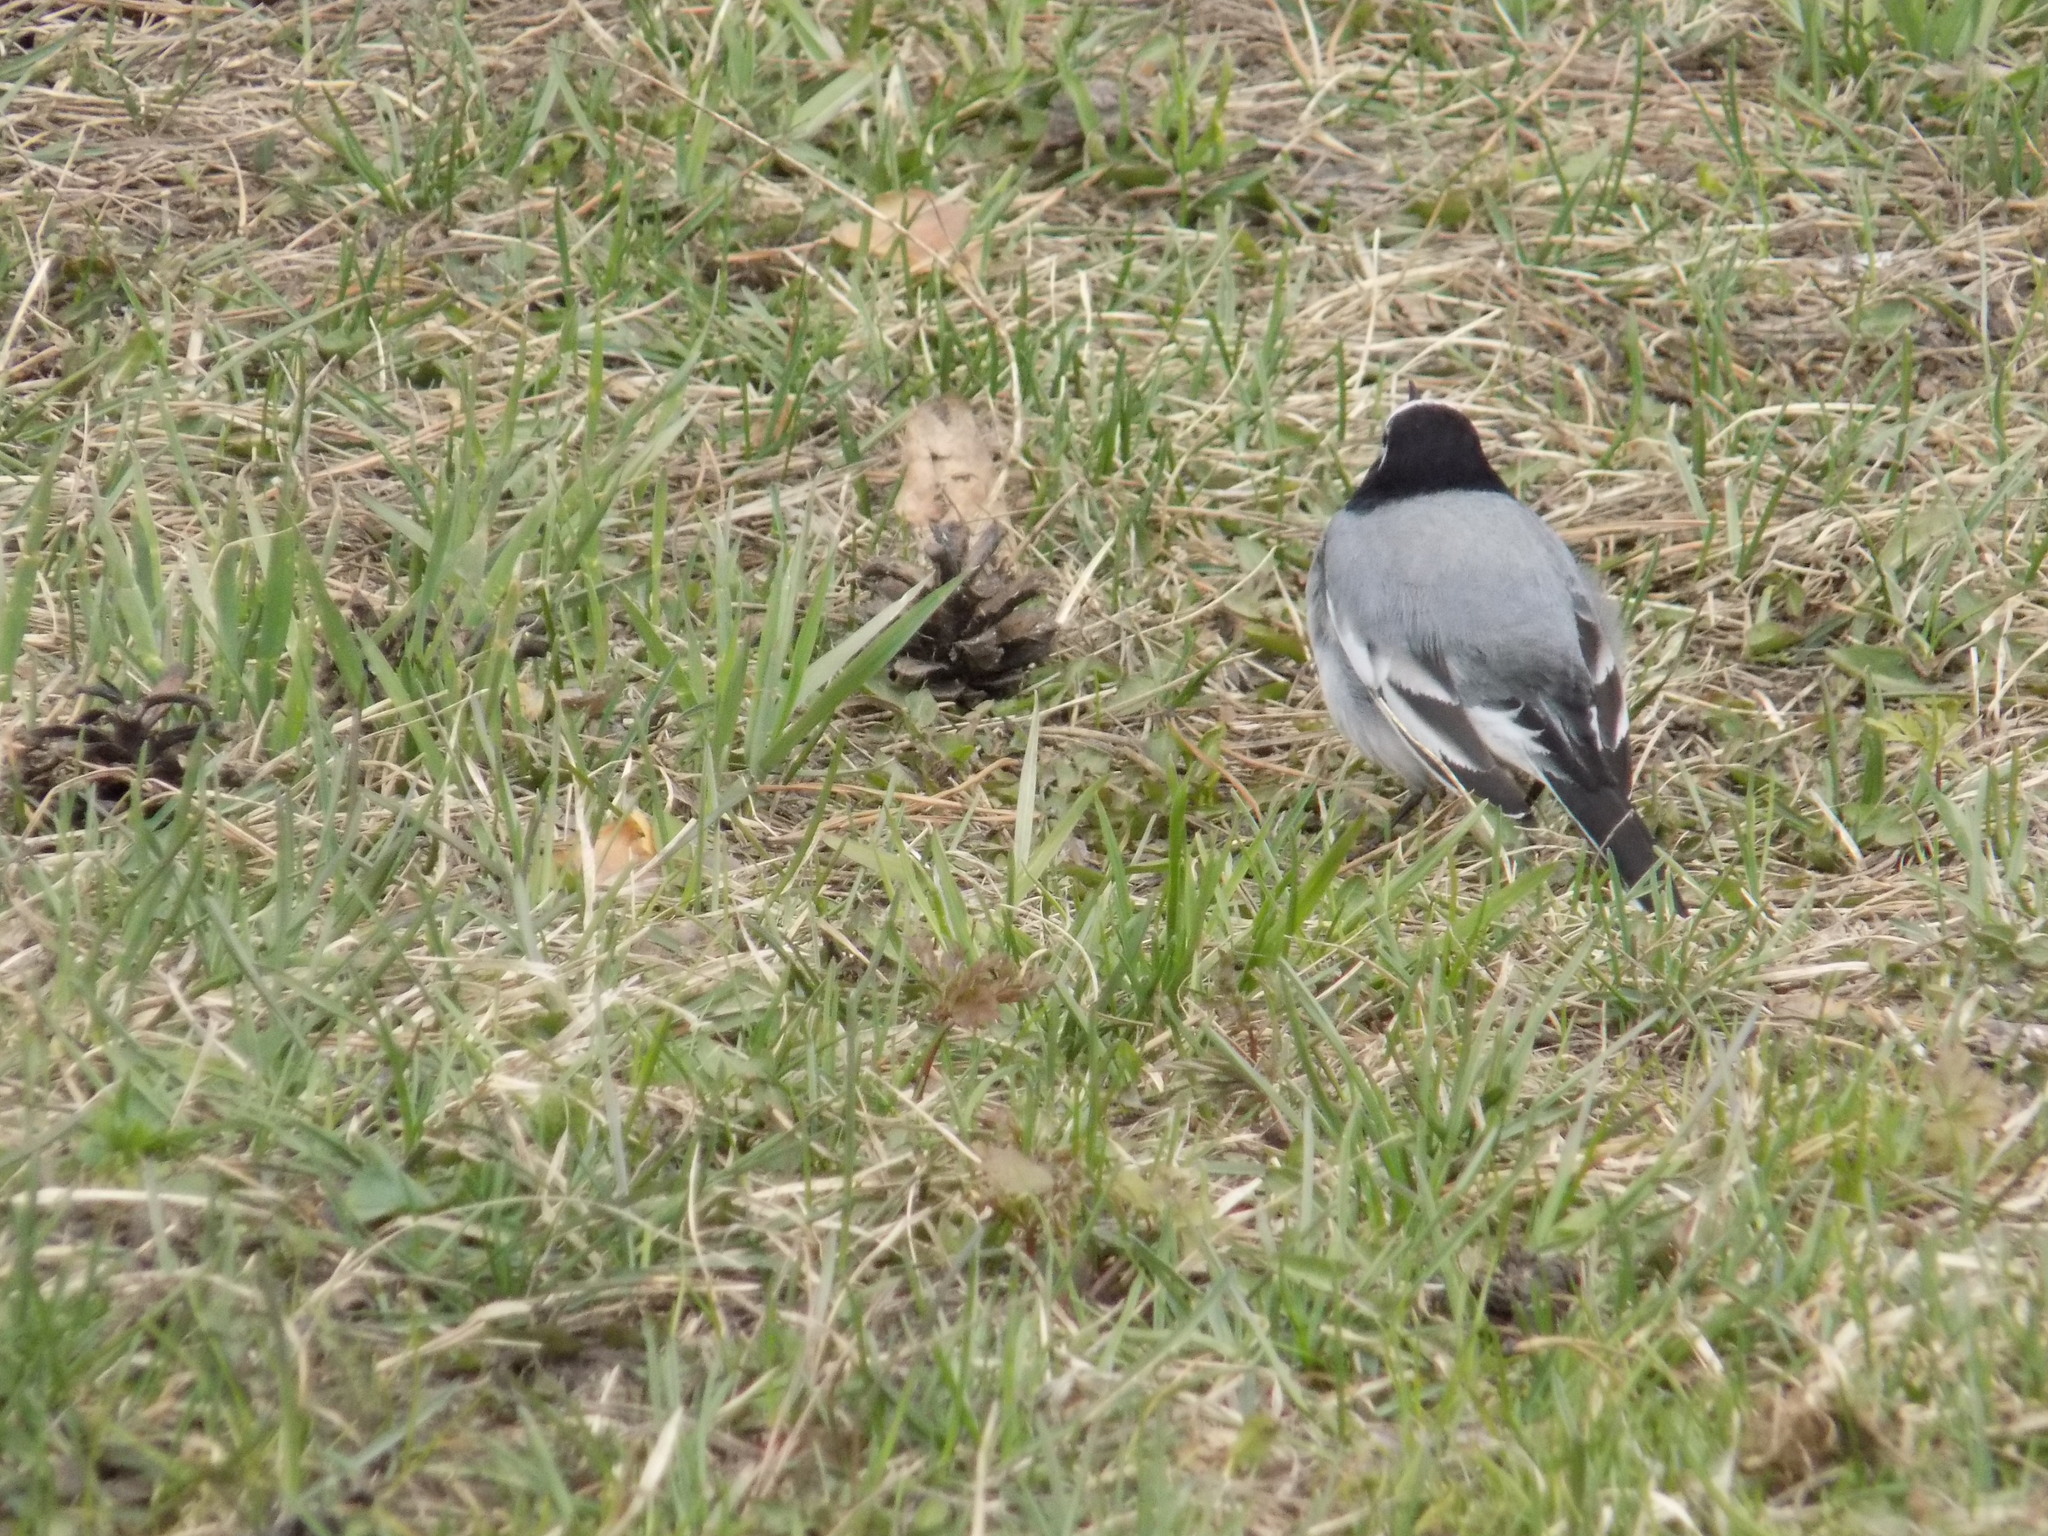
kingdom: Animalia
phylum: Chordata
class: Aves
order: Passeriformes
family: Motacillidae
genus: Motacilla
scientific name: Motacilla alba
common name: White wagtail
